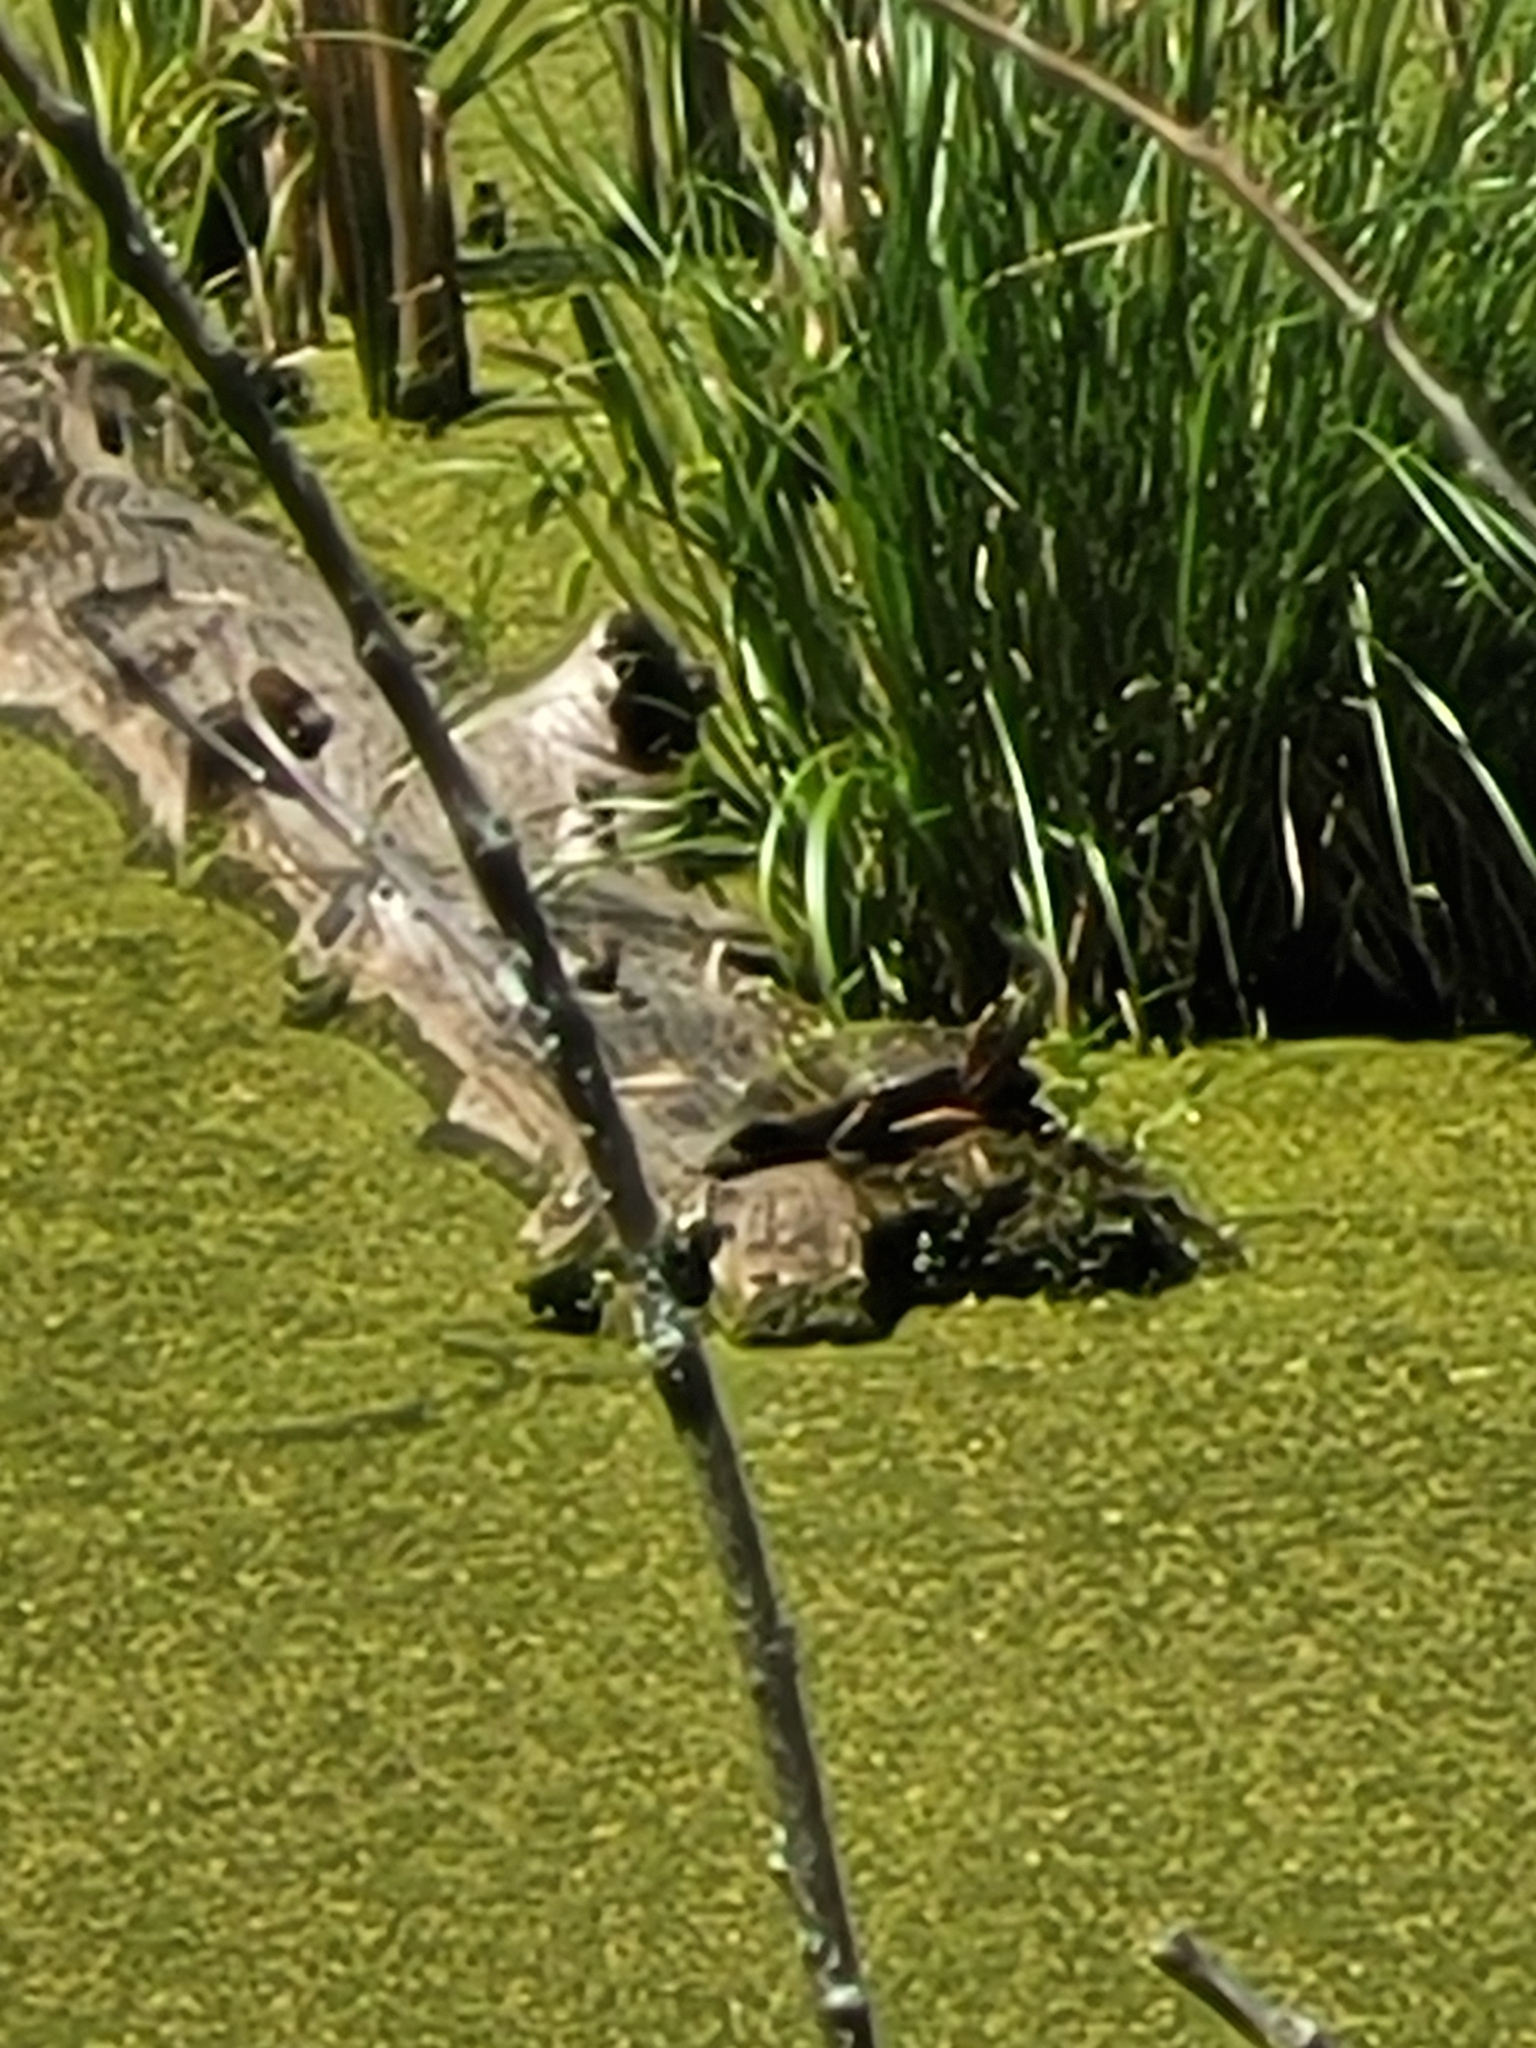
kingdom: Animalia
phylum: Chordata
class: Testudines
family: Emydidae
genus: Chrysemys
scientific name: Chrysemys picta
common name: Painted turtle
